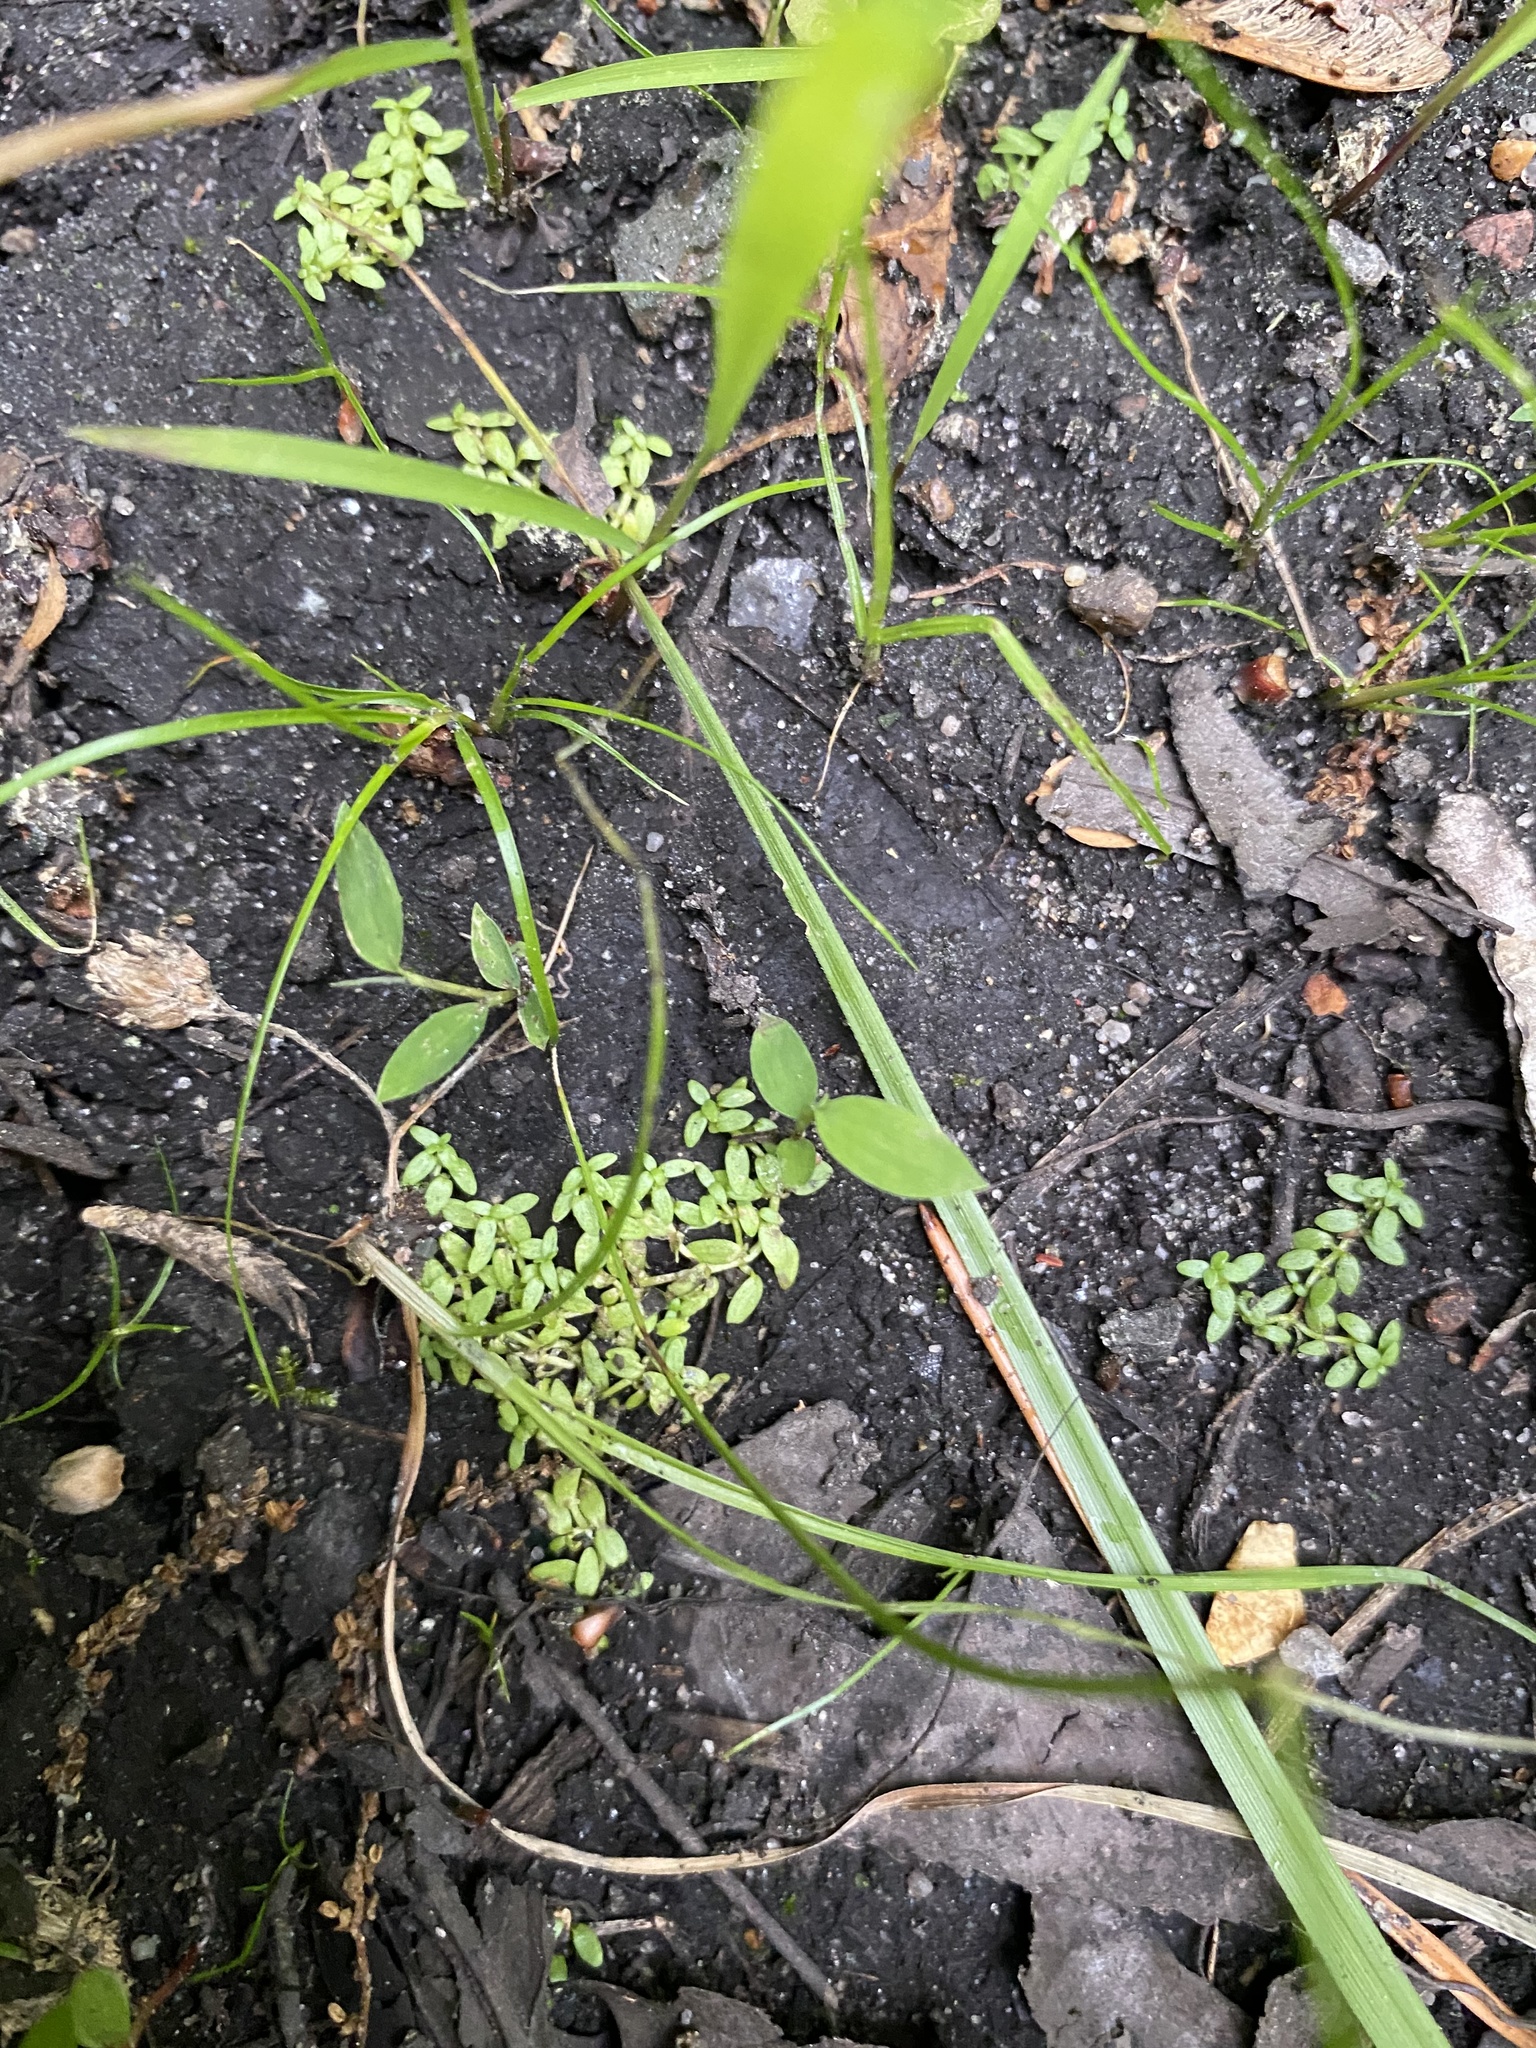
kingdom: Plantae
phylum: Tracheophyta
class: Magnoliopsida
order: Lamiales
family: Plantaginaceae
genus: Callitriche
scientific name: Callitriche terrestris
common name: Terrestrial water-starwort
